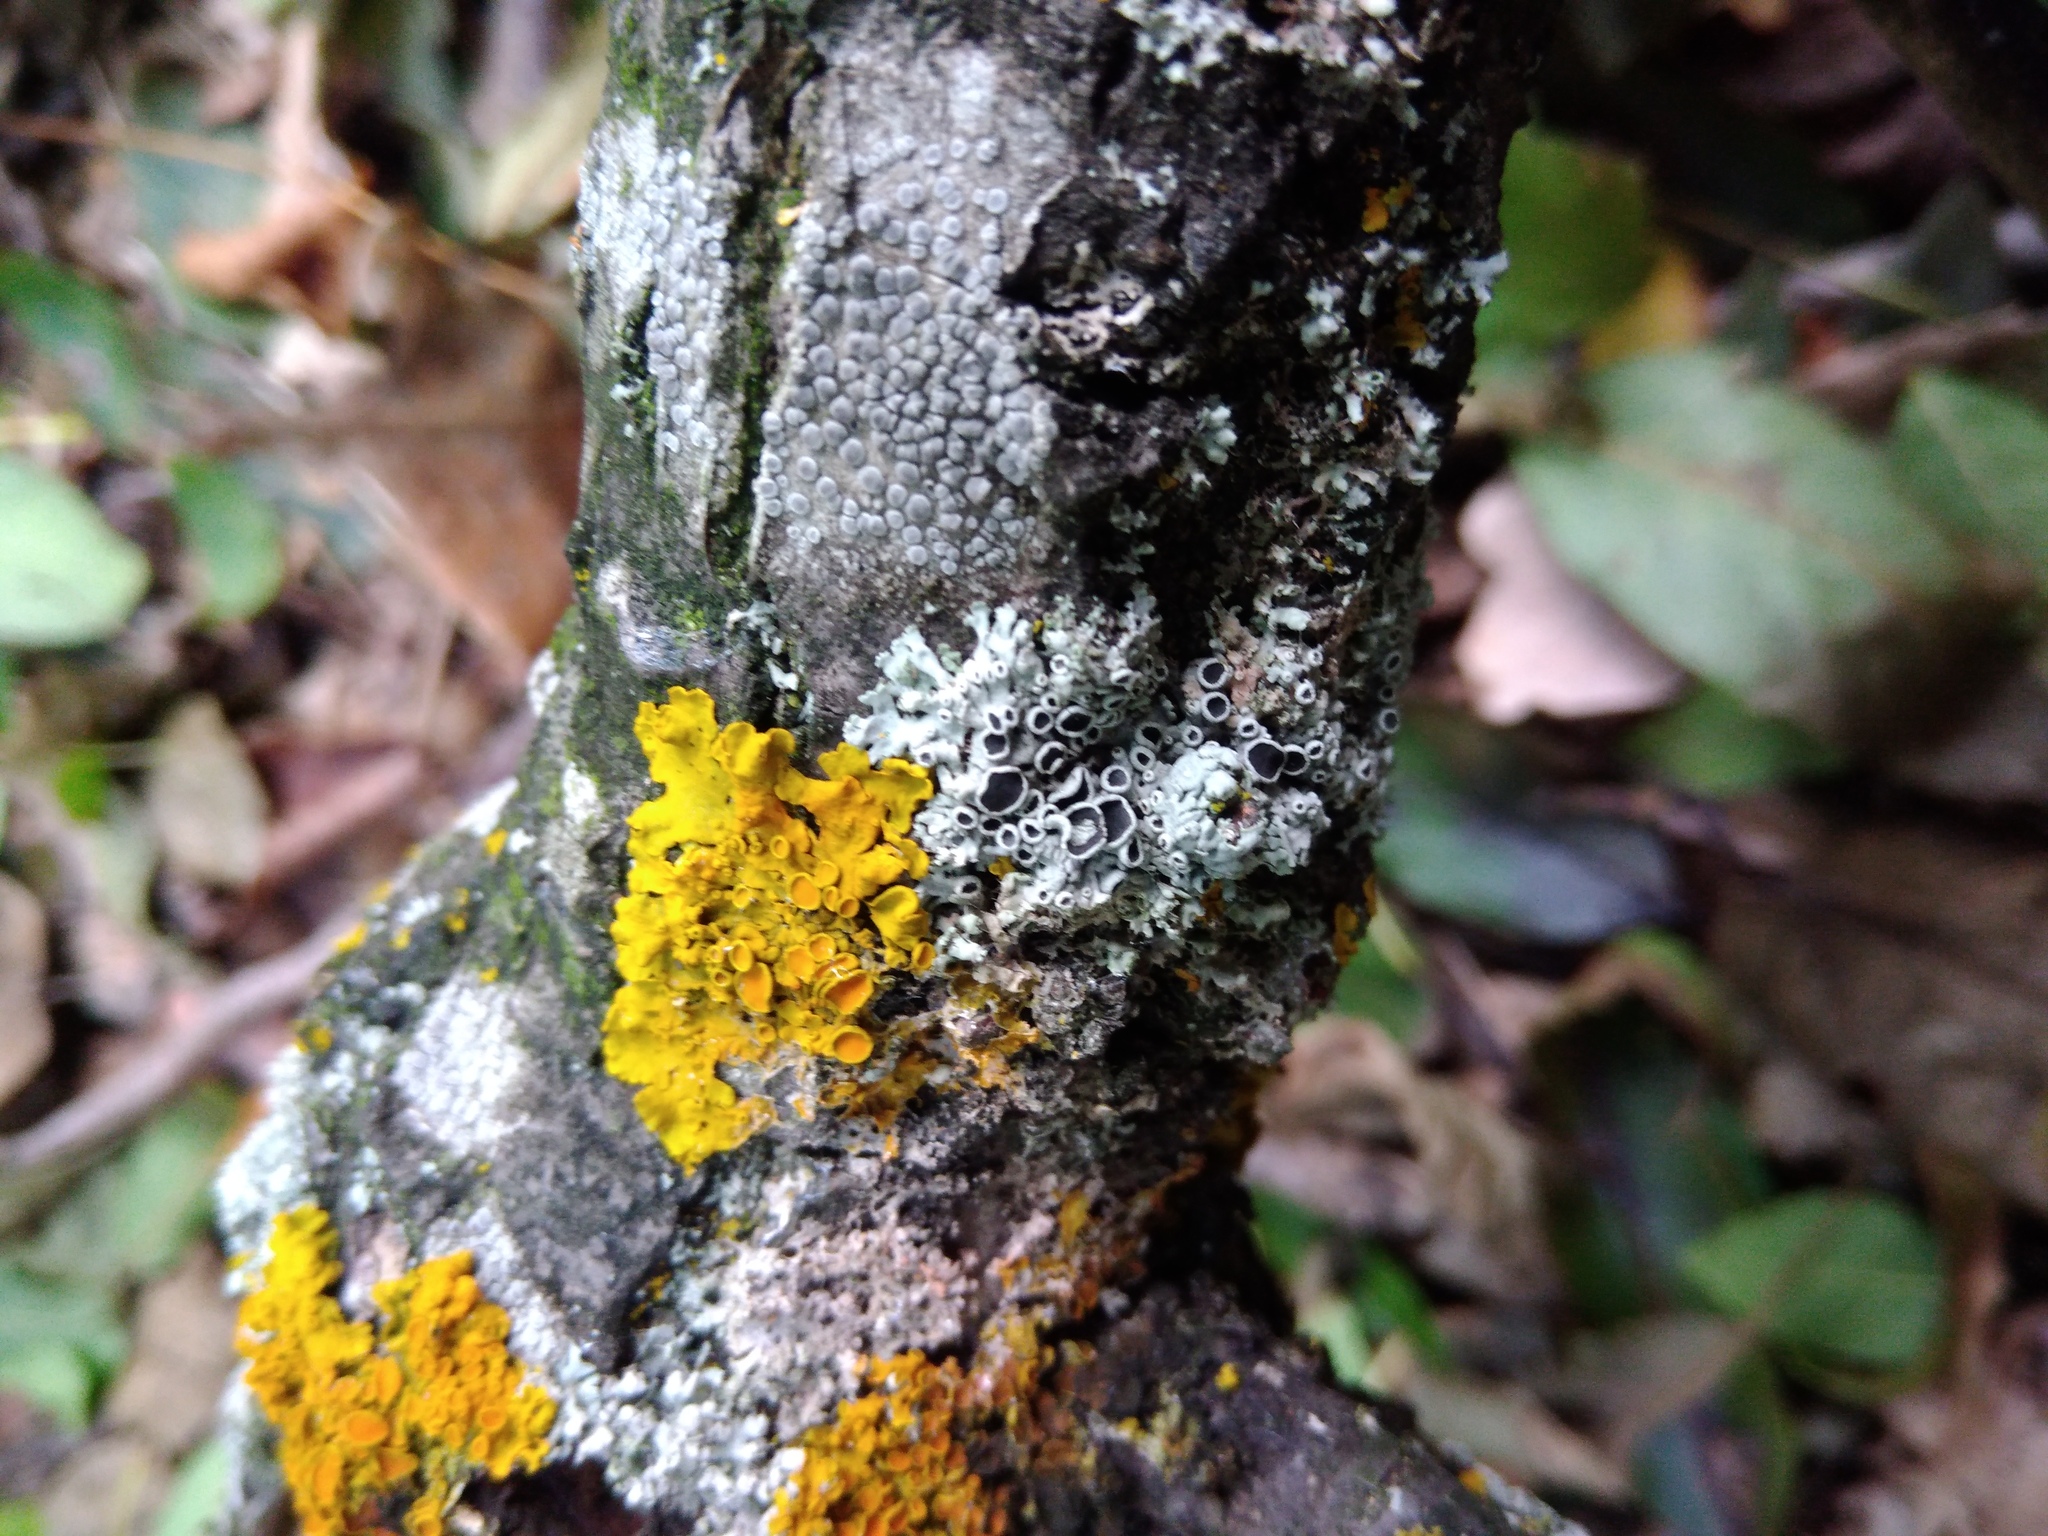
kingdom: Fungi
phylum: Ascomycota
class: Lecanoromycetes
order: Caliciales
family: Physciaceae
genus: Physcia
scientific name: Physcia stellaris
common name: Star rosette lichen
